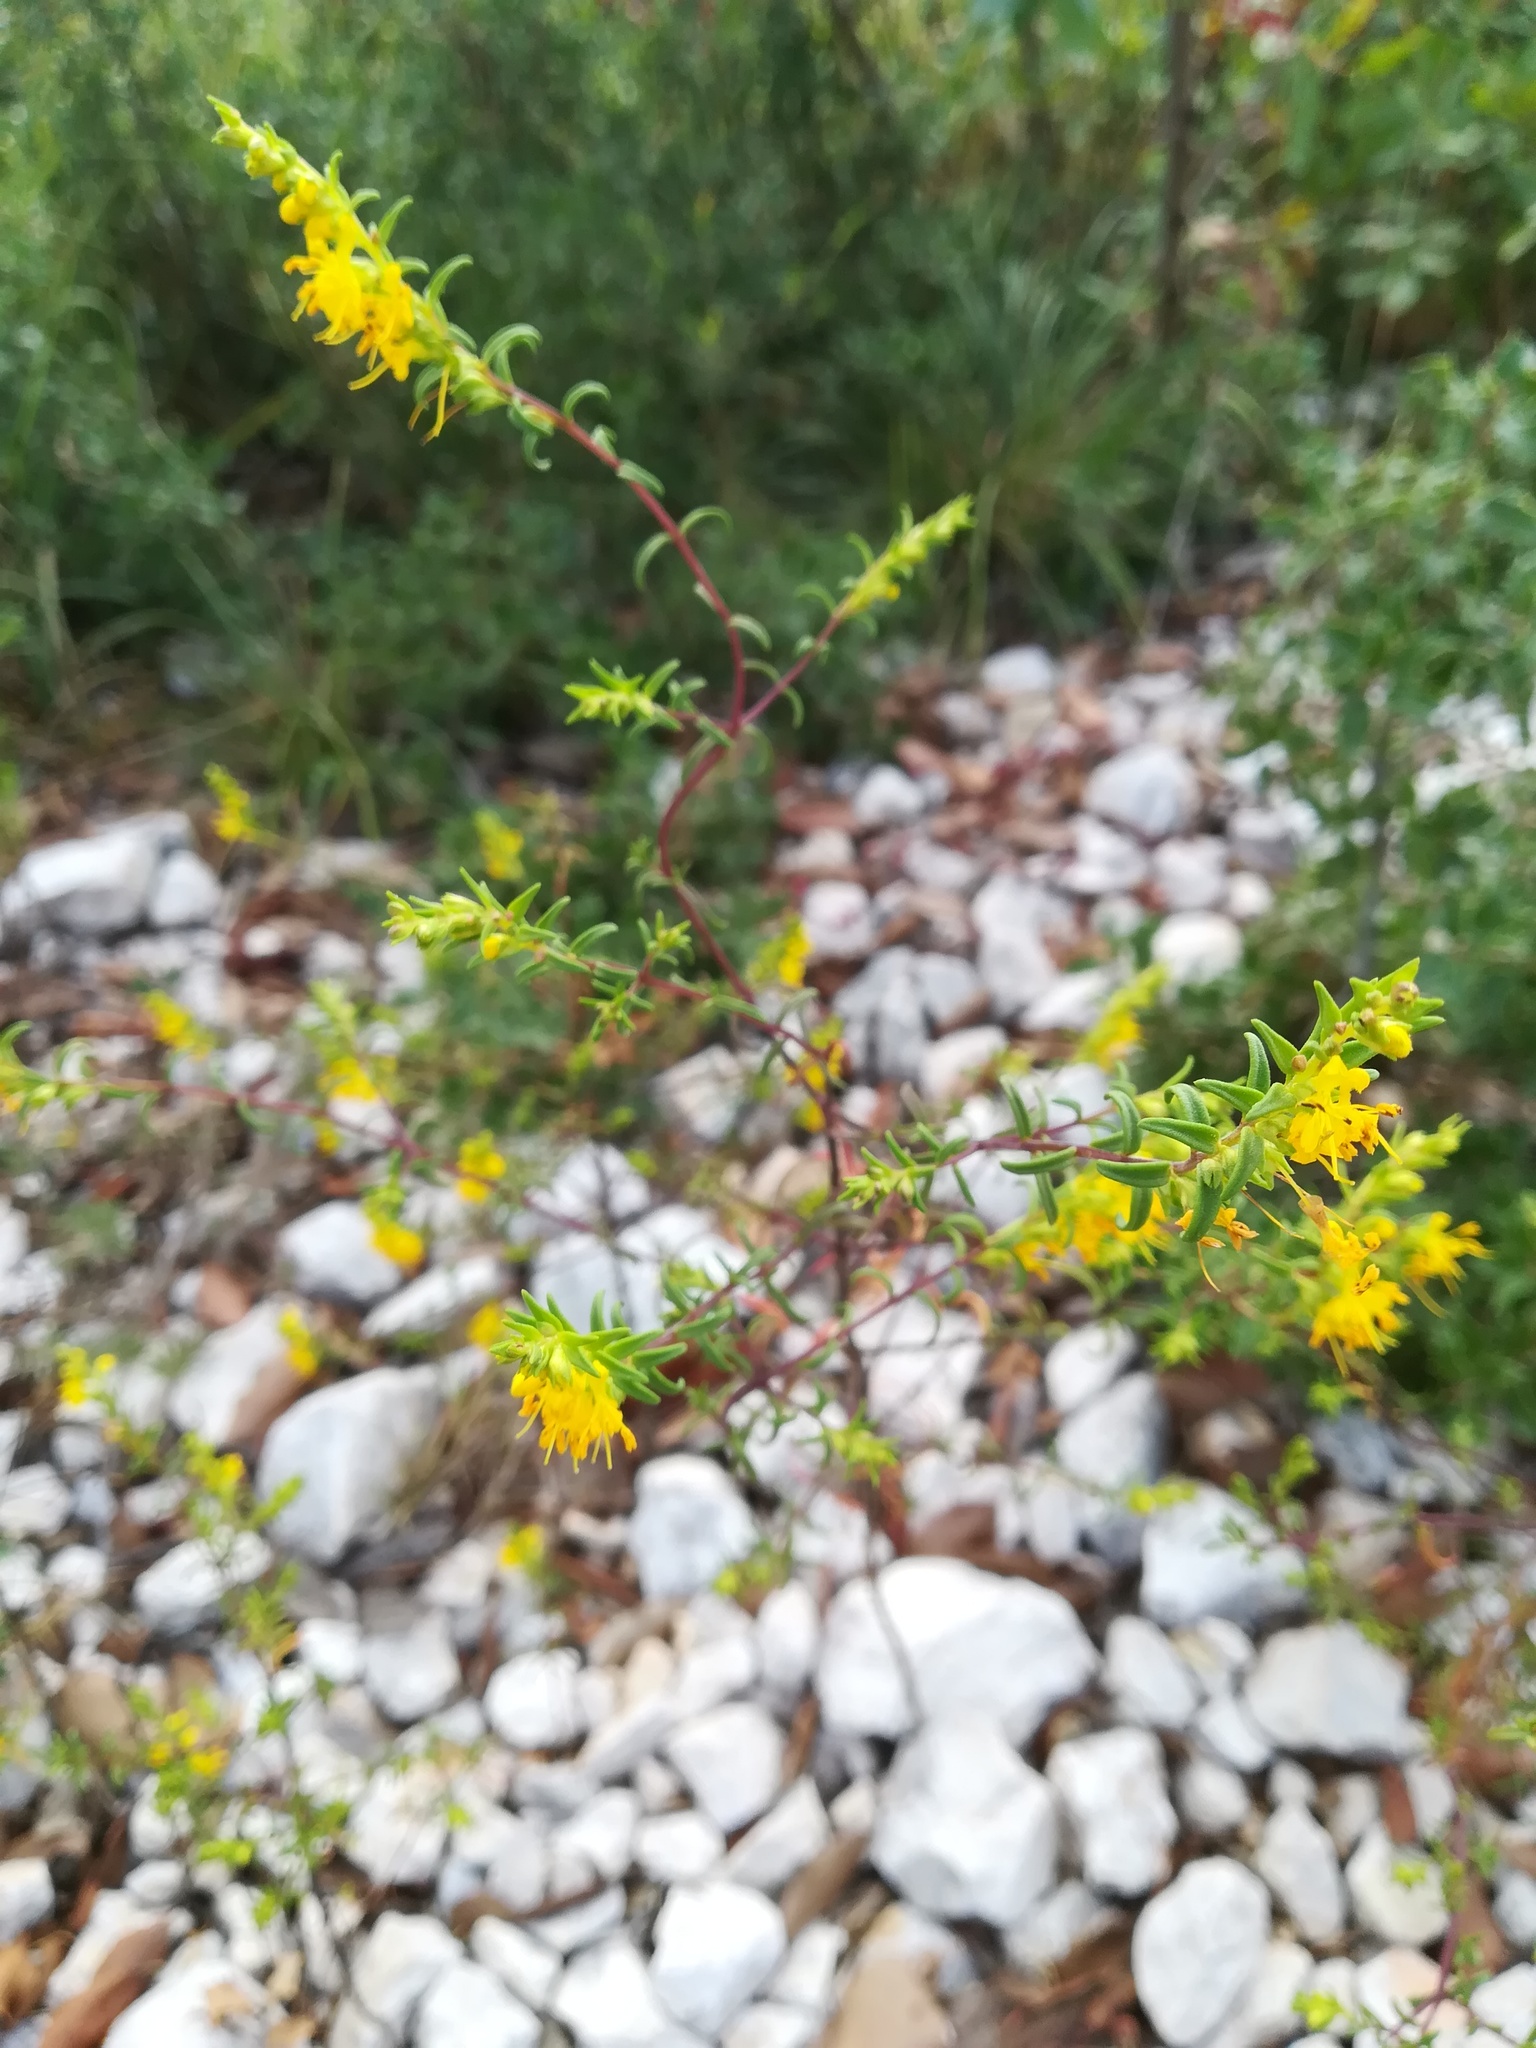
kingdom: Plantae
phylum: Tracheophyta
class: Magnoliopsida
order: Lamiales
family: Orobanchaceae
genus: Odontites
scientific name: Odontites luteus
